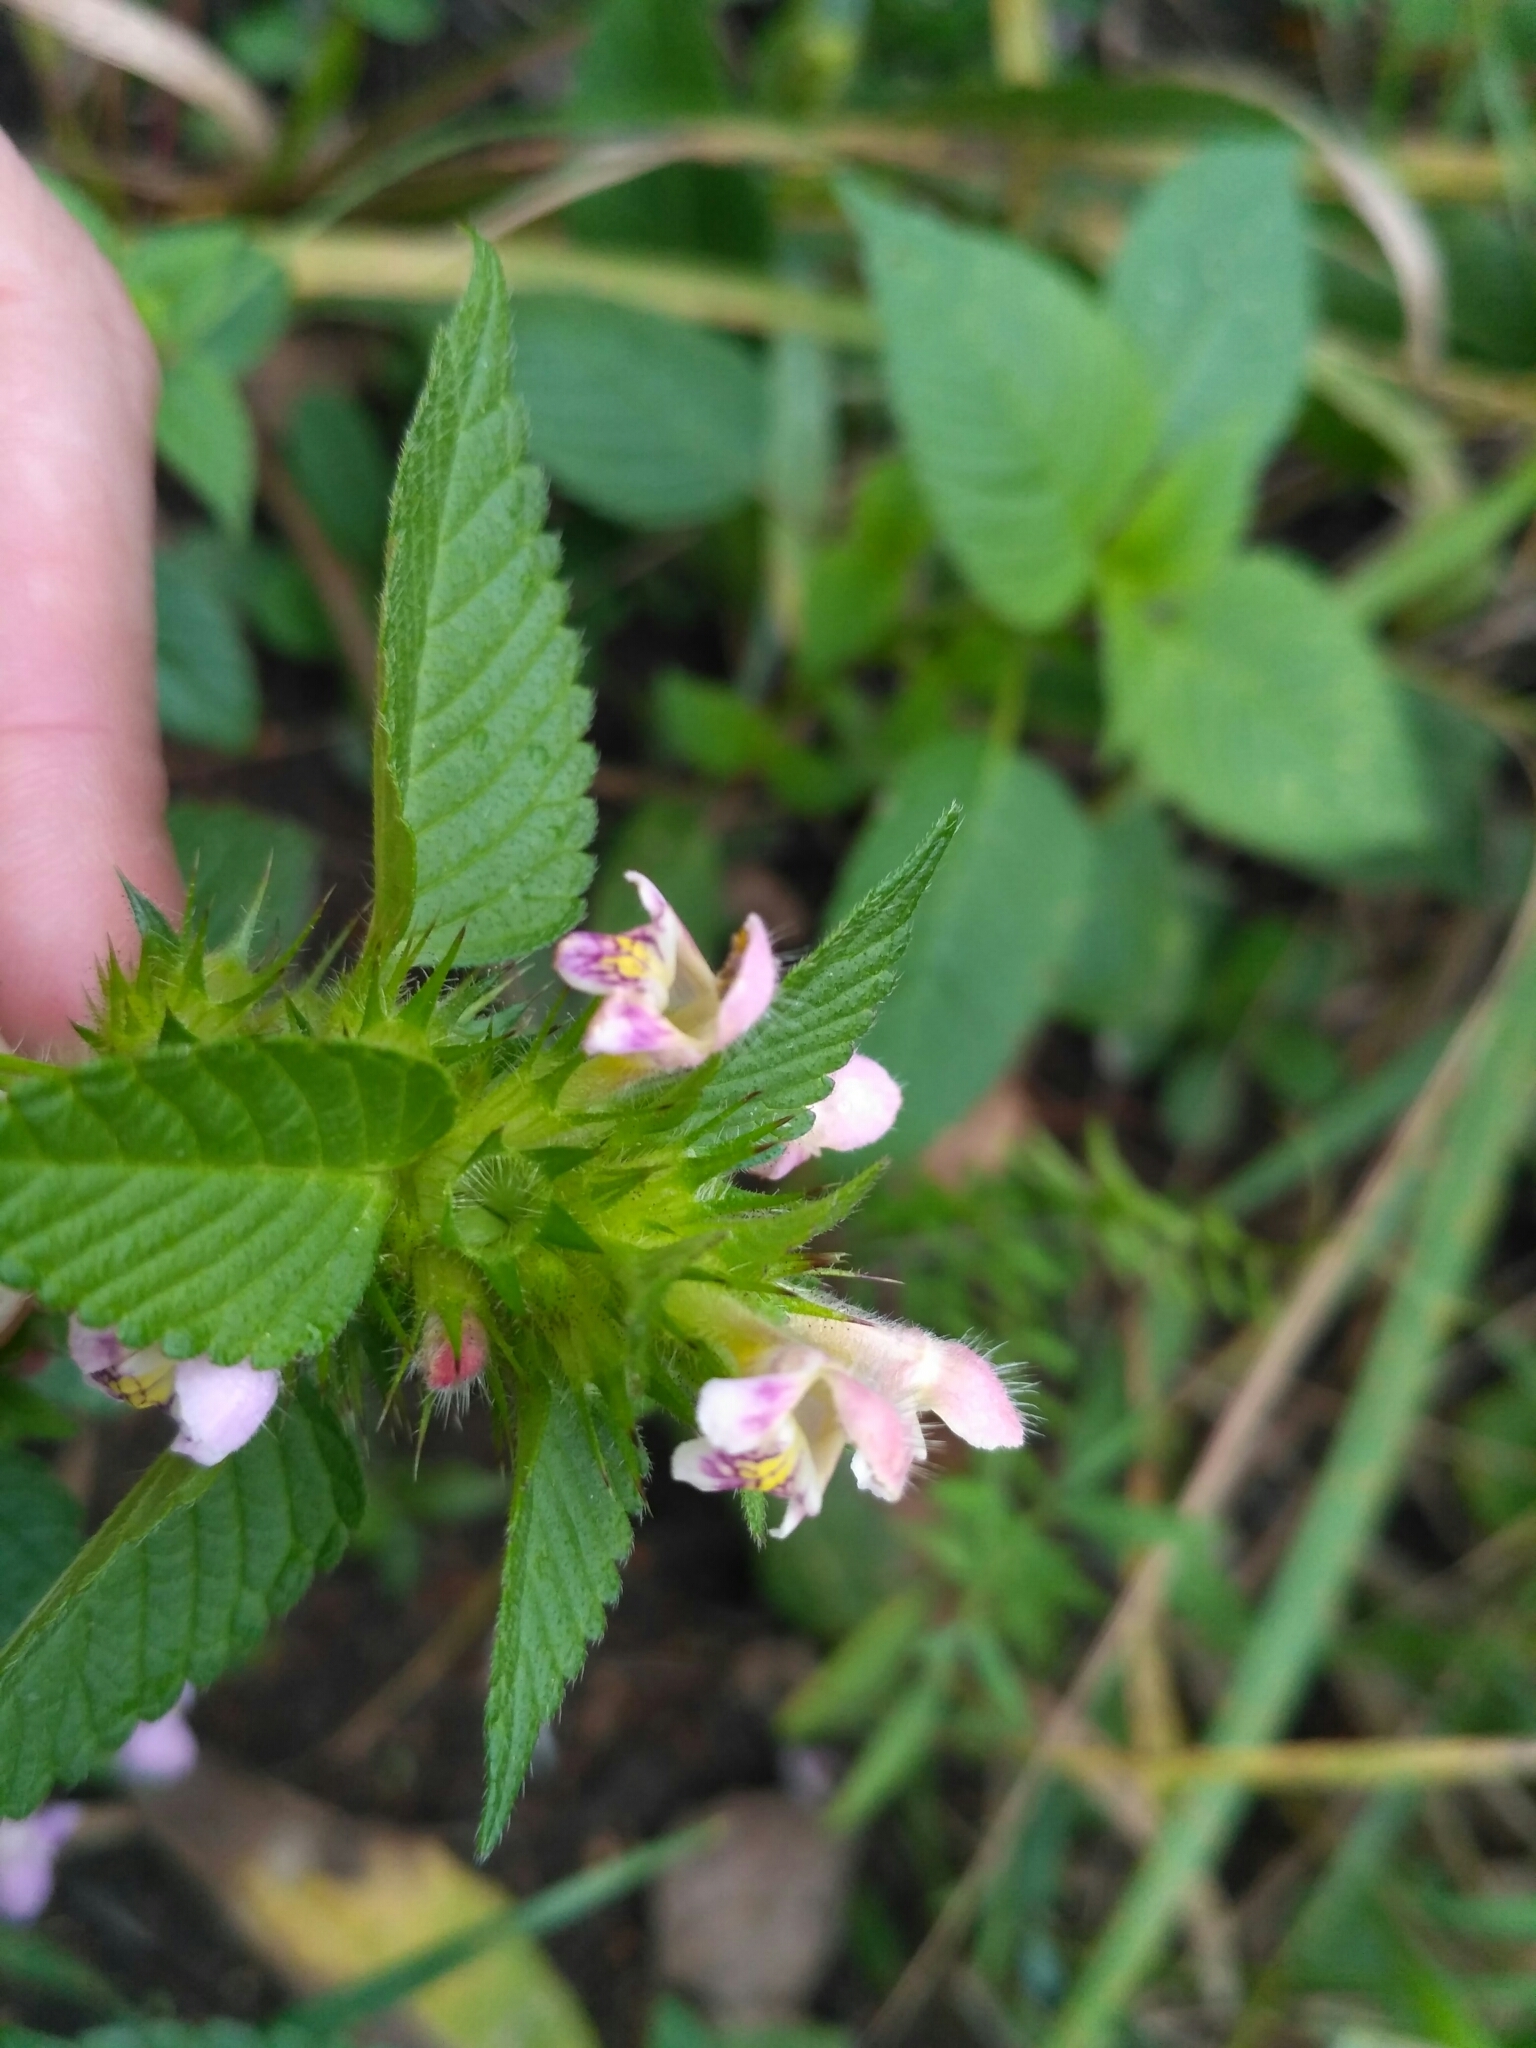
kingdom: Plantae
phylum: Tracheophyta
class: Magnoliopsida
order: Lamiales
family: Lamiaceae
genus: Galeopsis
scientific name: Galeopsis tetrahit
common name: Common hemp-nettle
